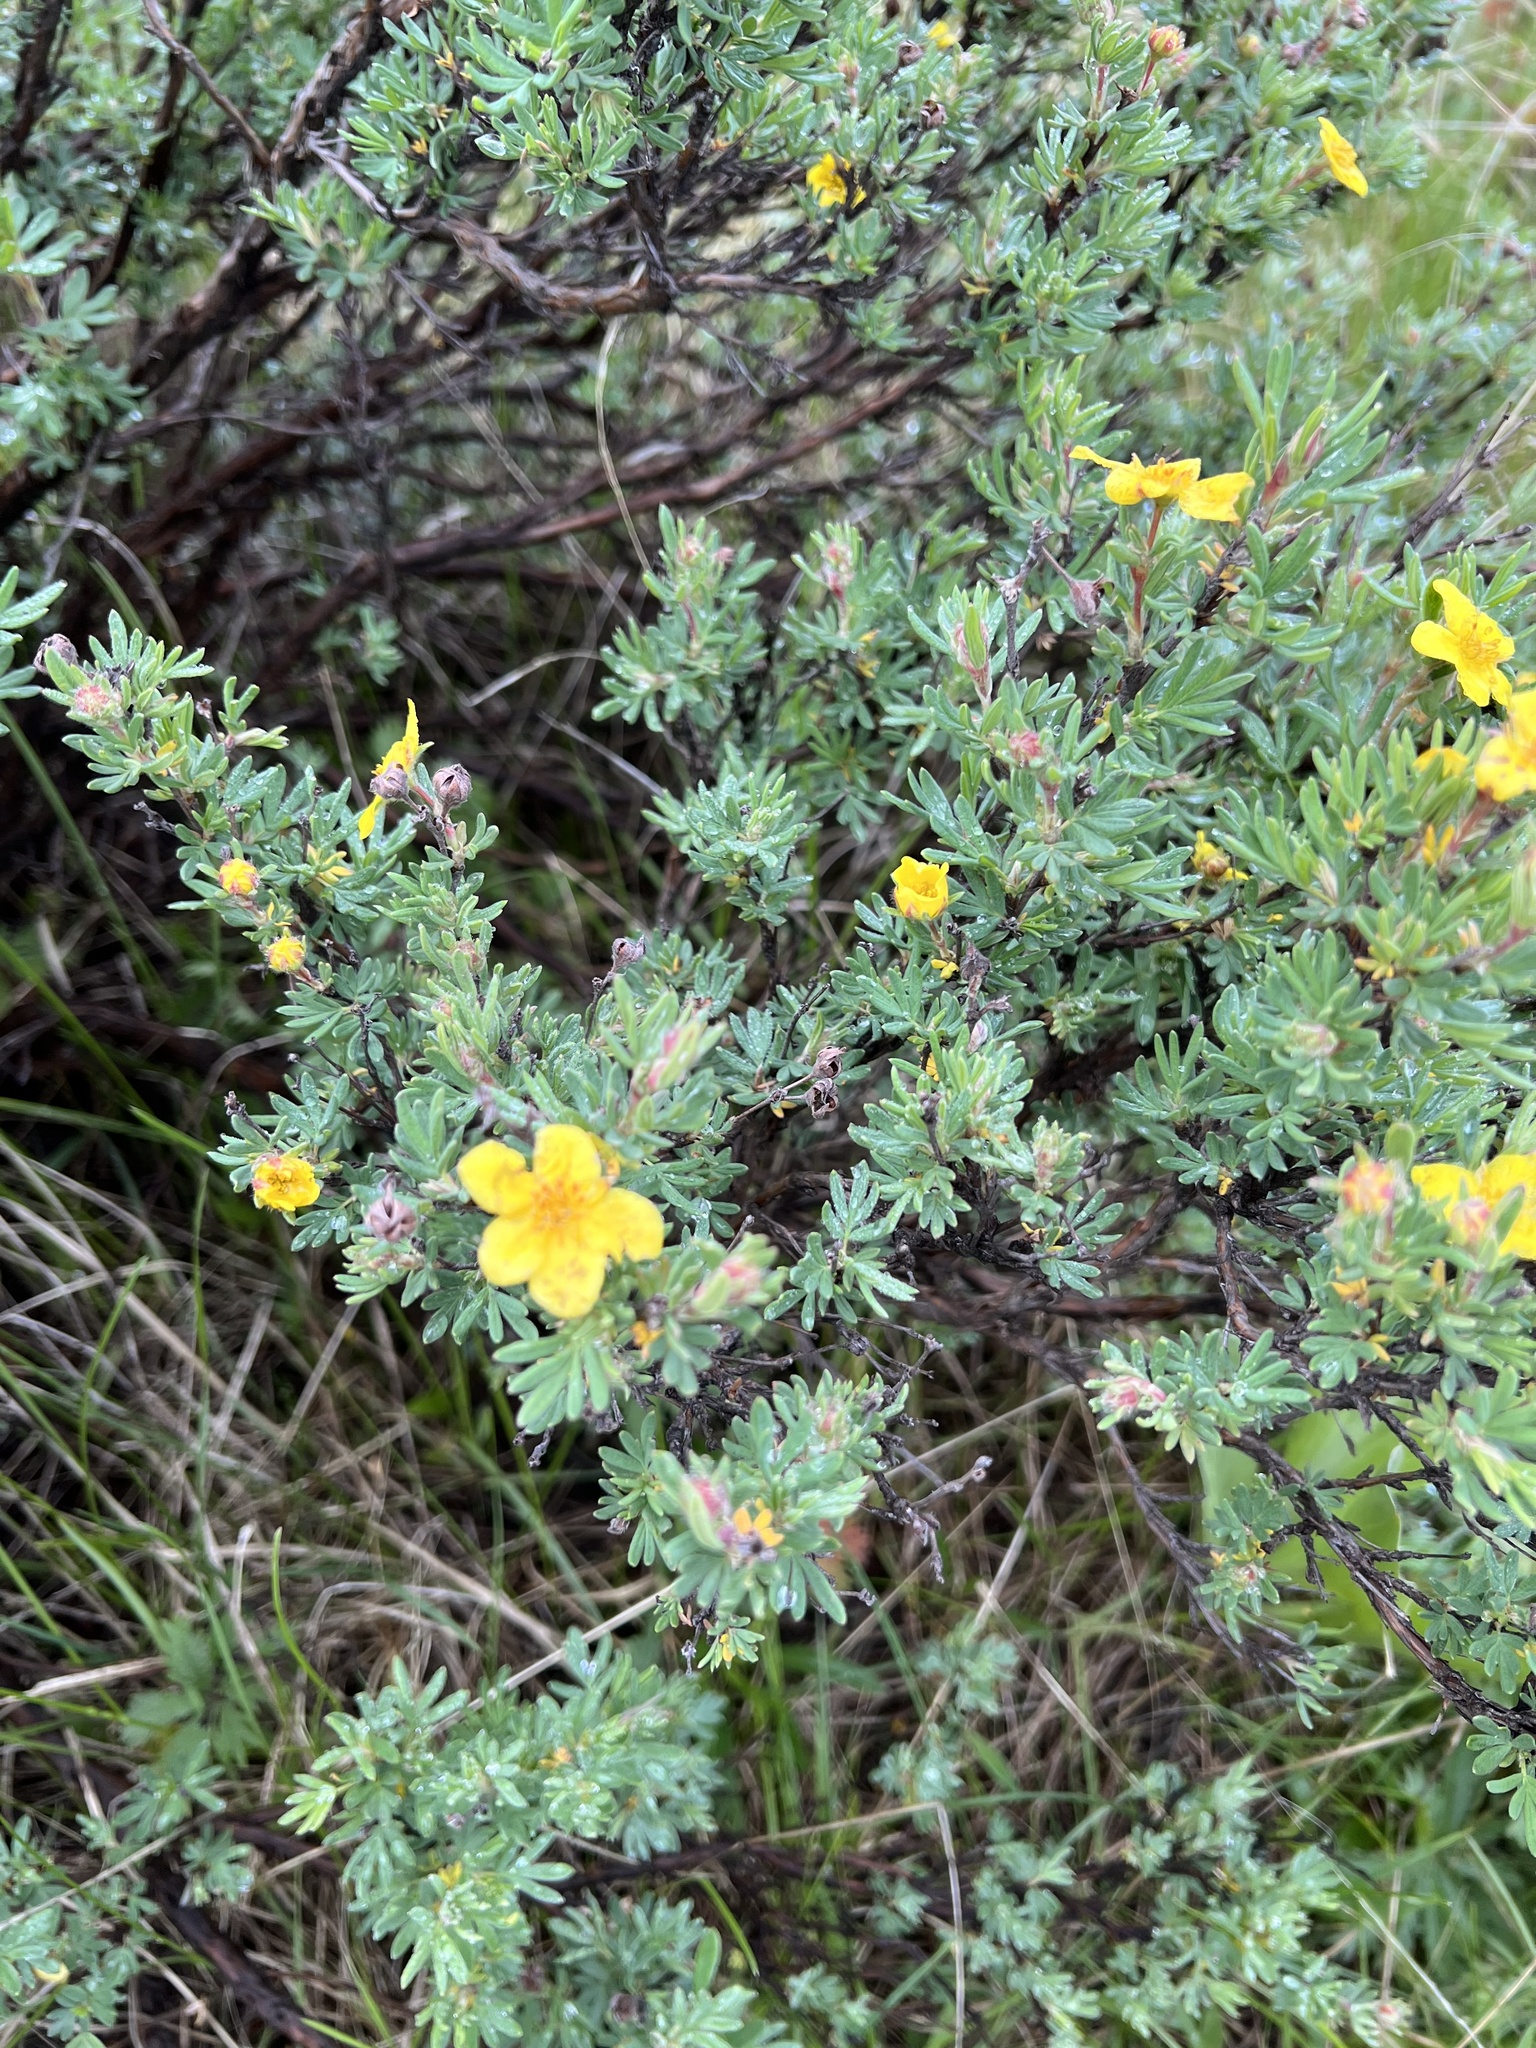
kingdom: Plantae
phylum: Tracheophyta
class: Magnoliopsida
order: Rosales
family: Rosaceae
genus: Dasiphora
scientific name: Dasiphora fruticosa
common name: Shrubby cinquefoil
